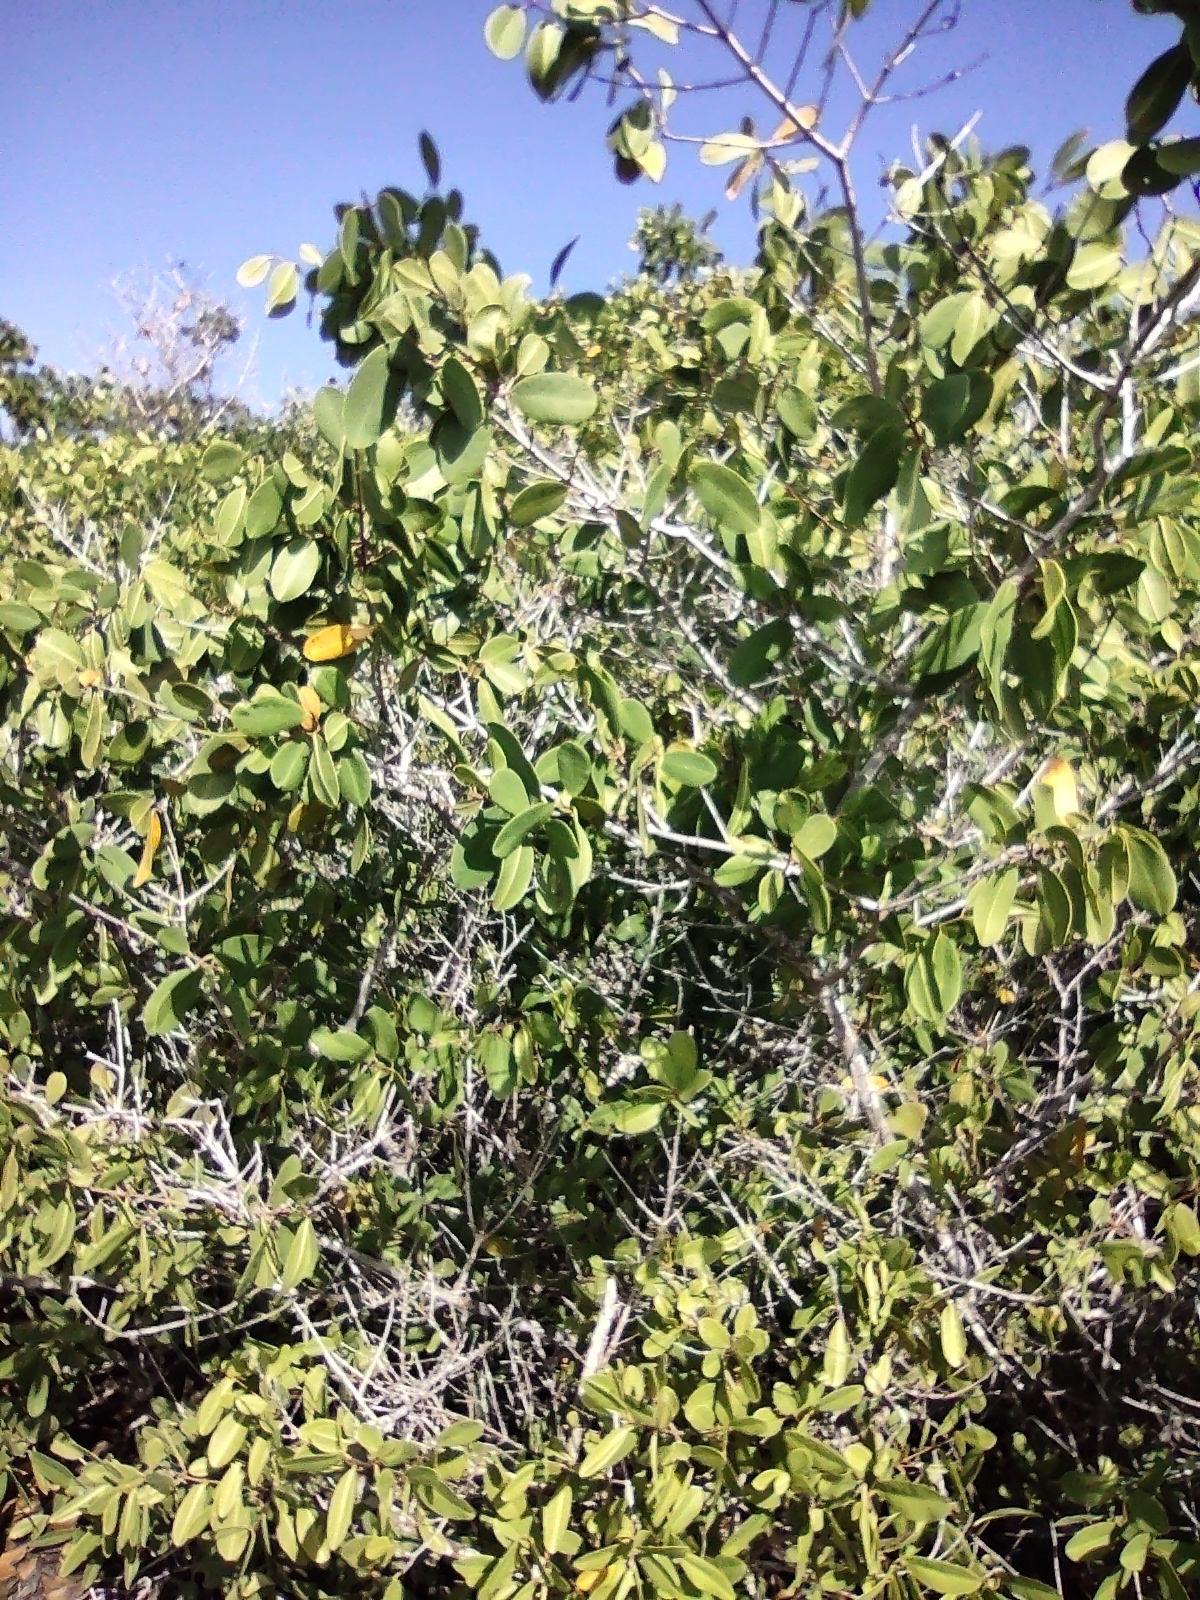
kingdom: Plantae
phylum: Tracheophyta
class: Magnoliopsida
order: Myrtales
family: Combretaceae
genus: Laguncularia
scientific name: Laguncularia racemosa
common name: White mangrove
